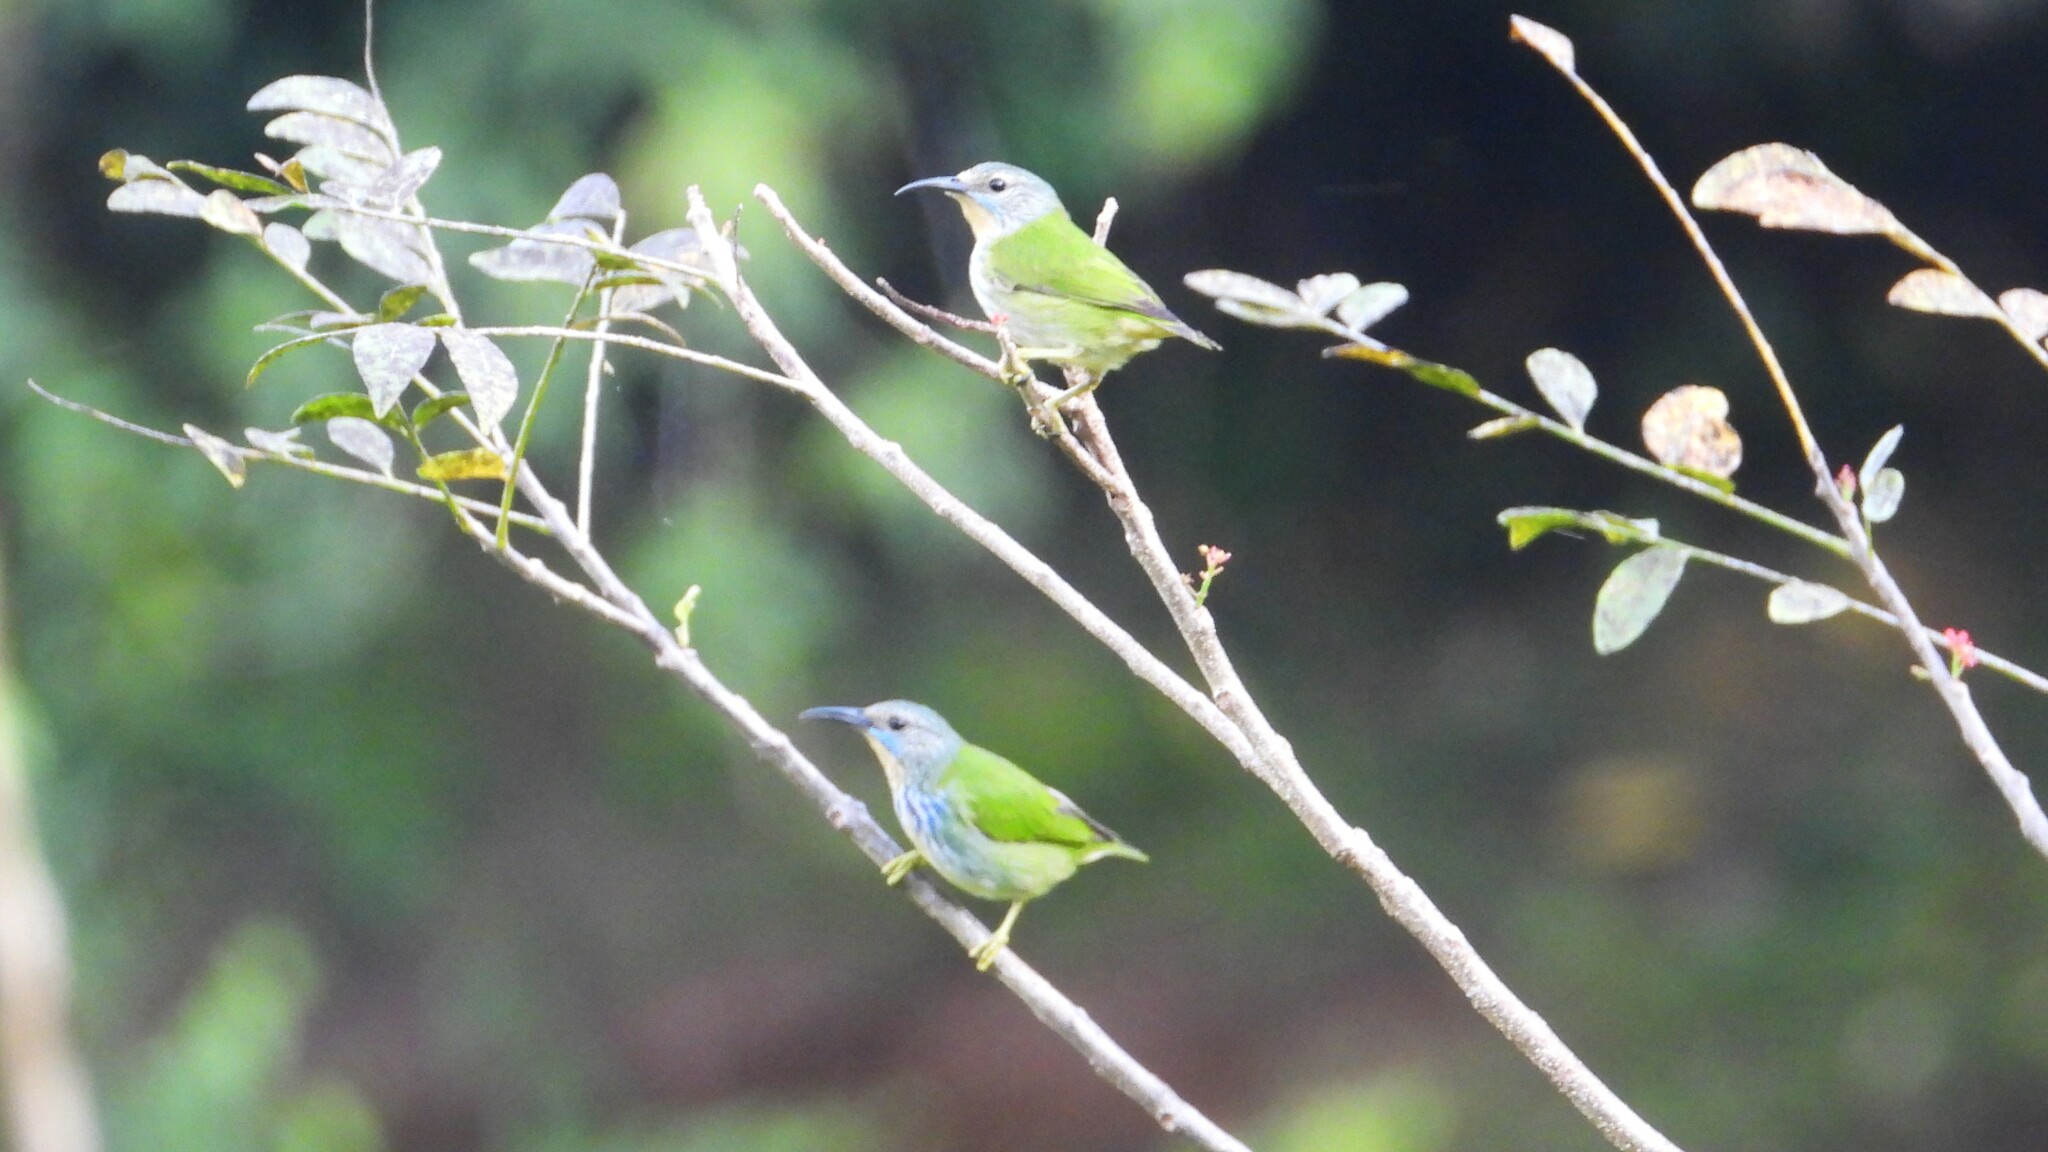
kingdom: Animalia
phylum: Chordata
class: Aves
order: Passeriformes
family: Thraupidae
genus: Cyanerpes
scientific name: Cyanerpes lucidus
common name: Shining honeycreeper
